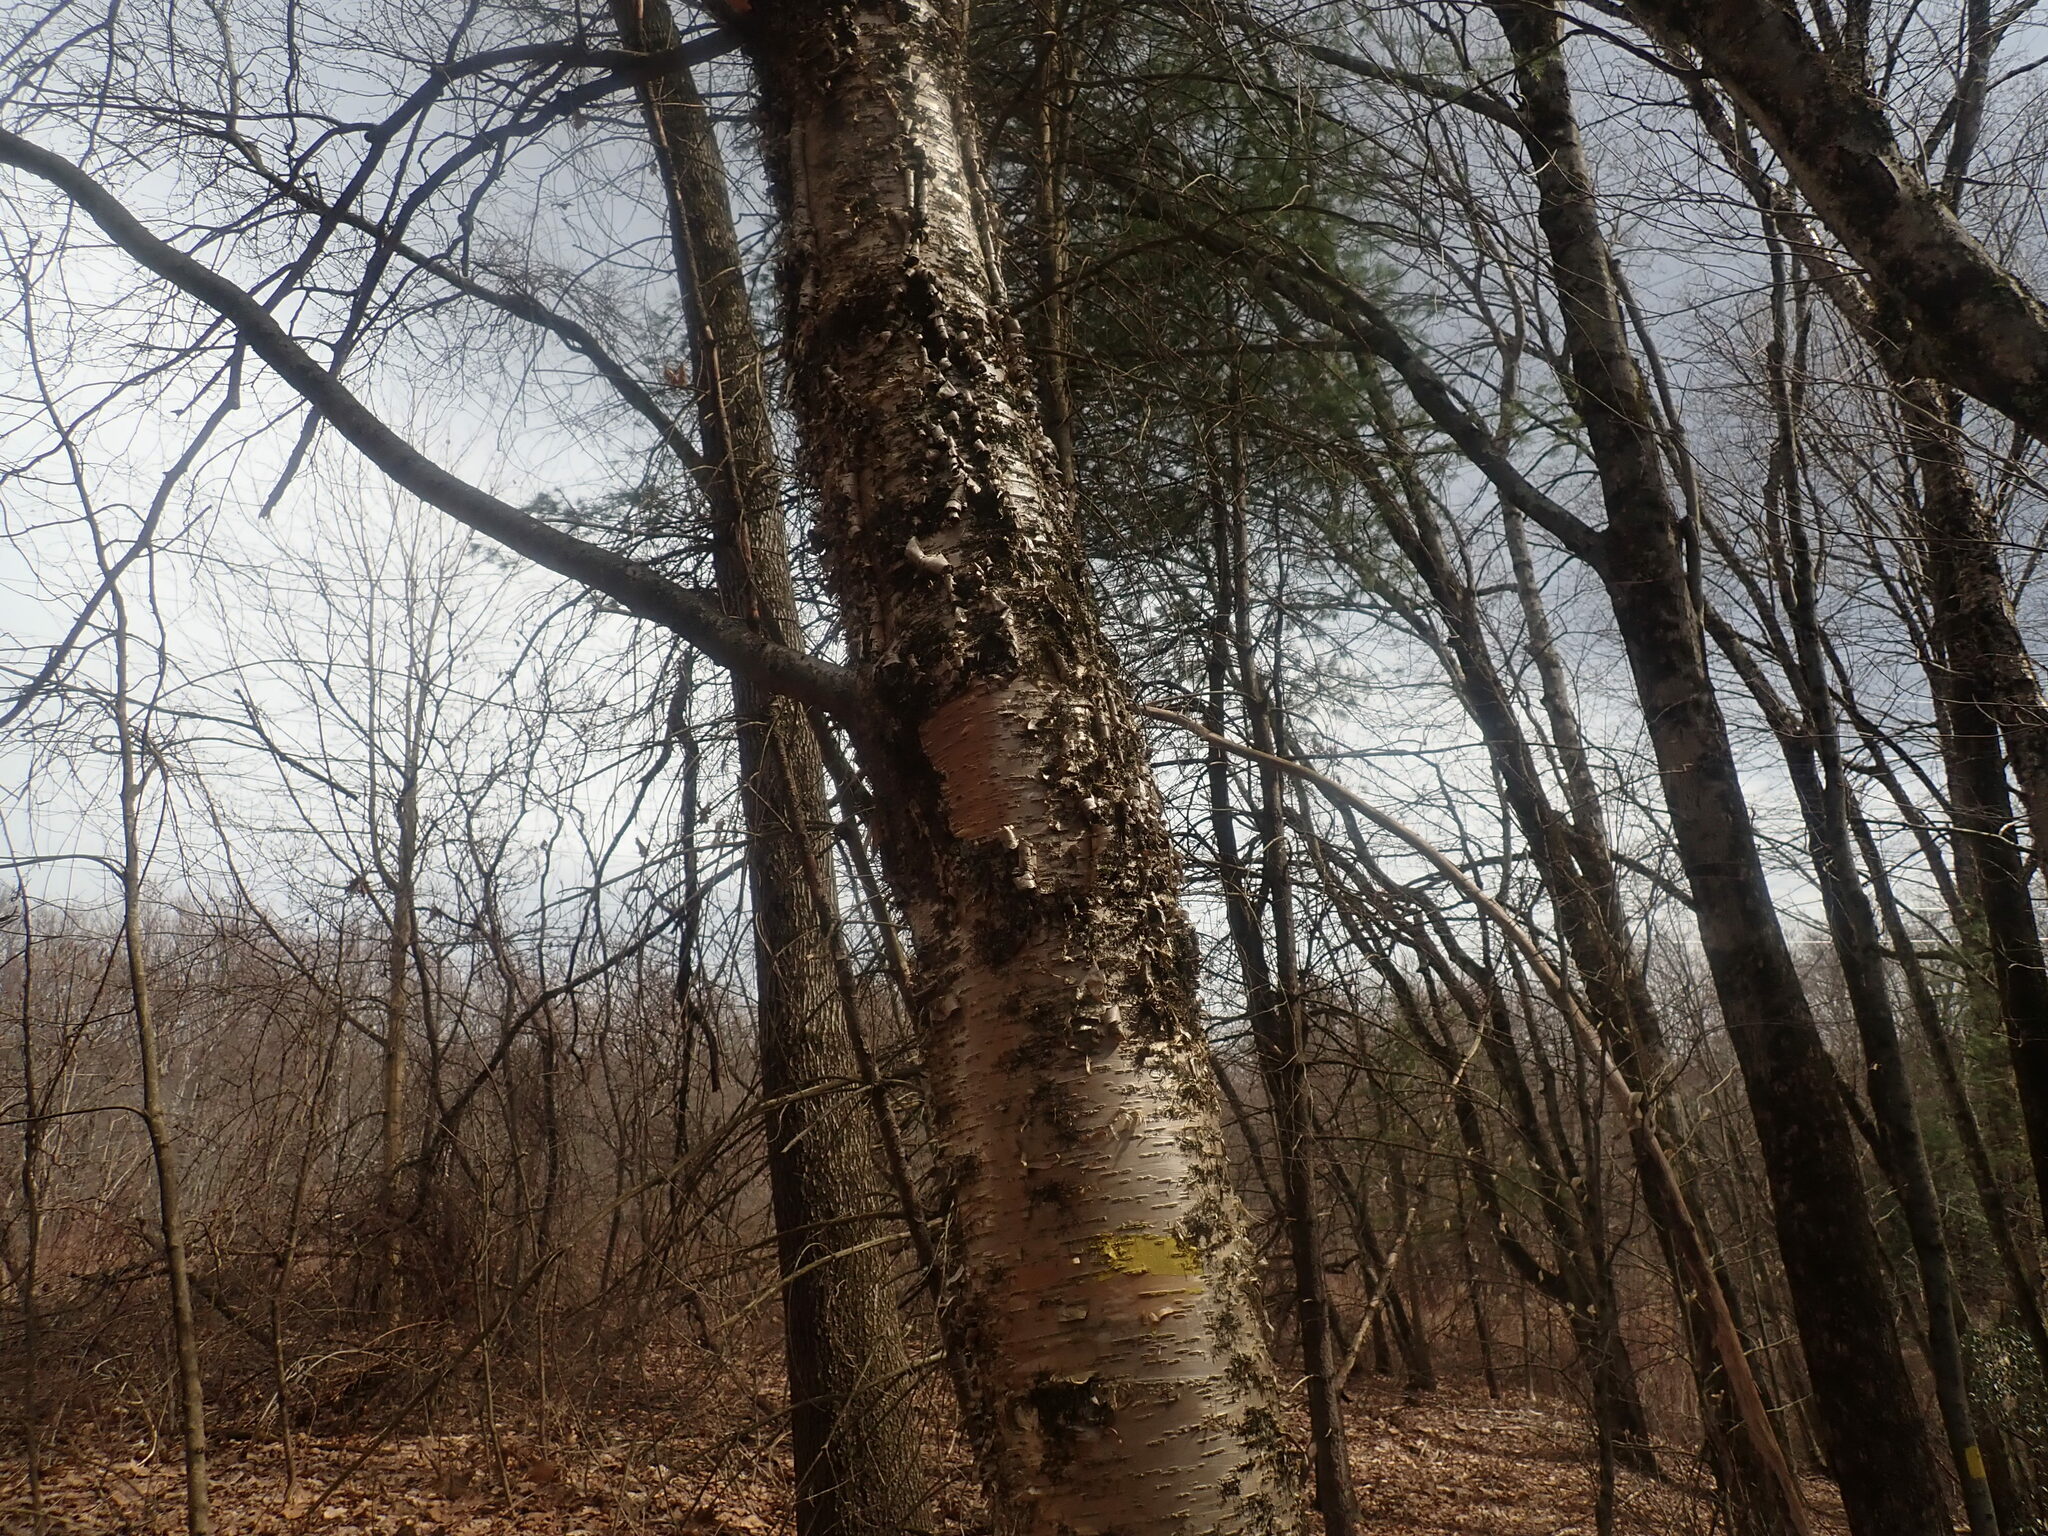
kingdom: Plantae
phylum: Tracheophyta
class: Magnoliopsida
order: Fagales
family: Betulaceae
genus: Betula
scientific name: Betula alleghaniensis
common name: Yellow birch
